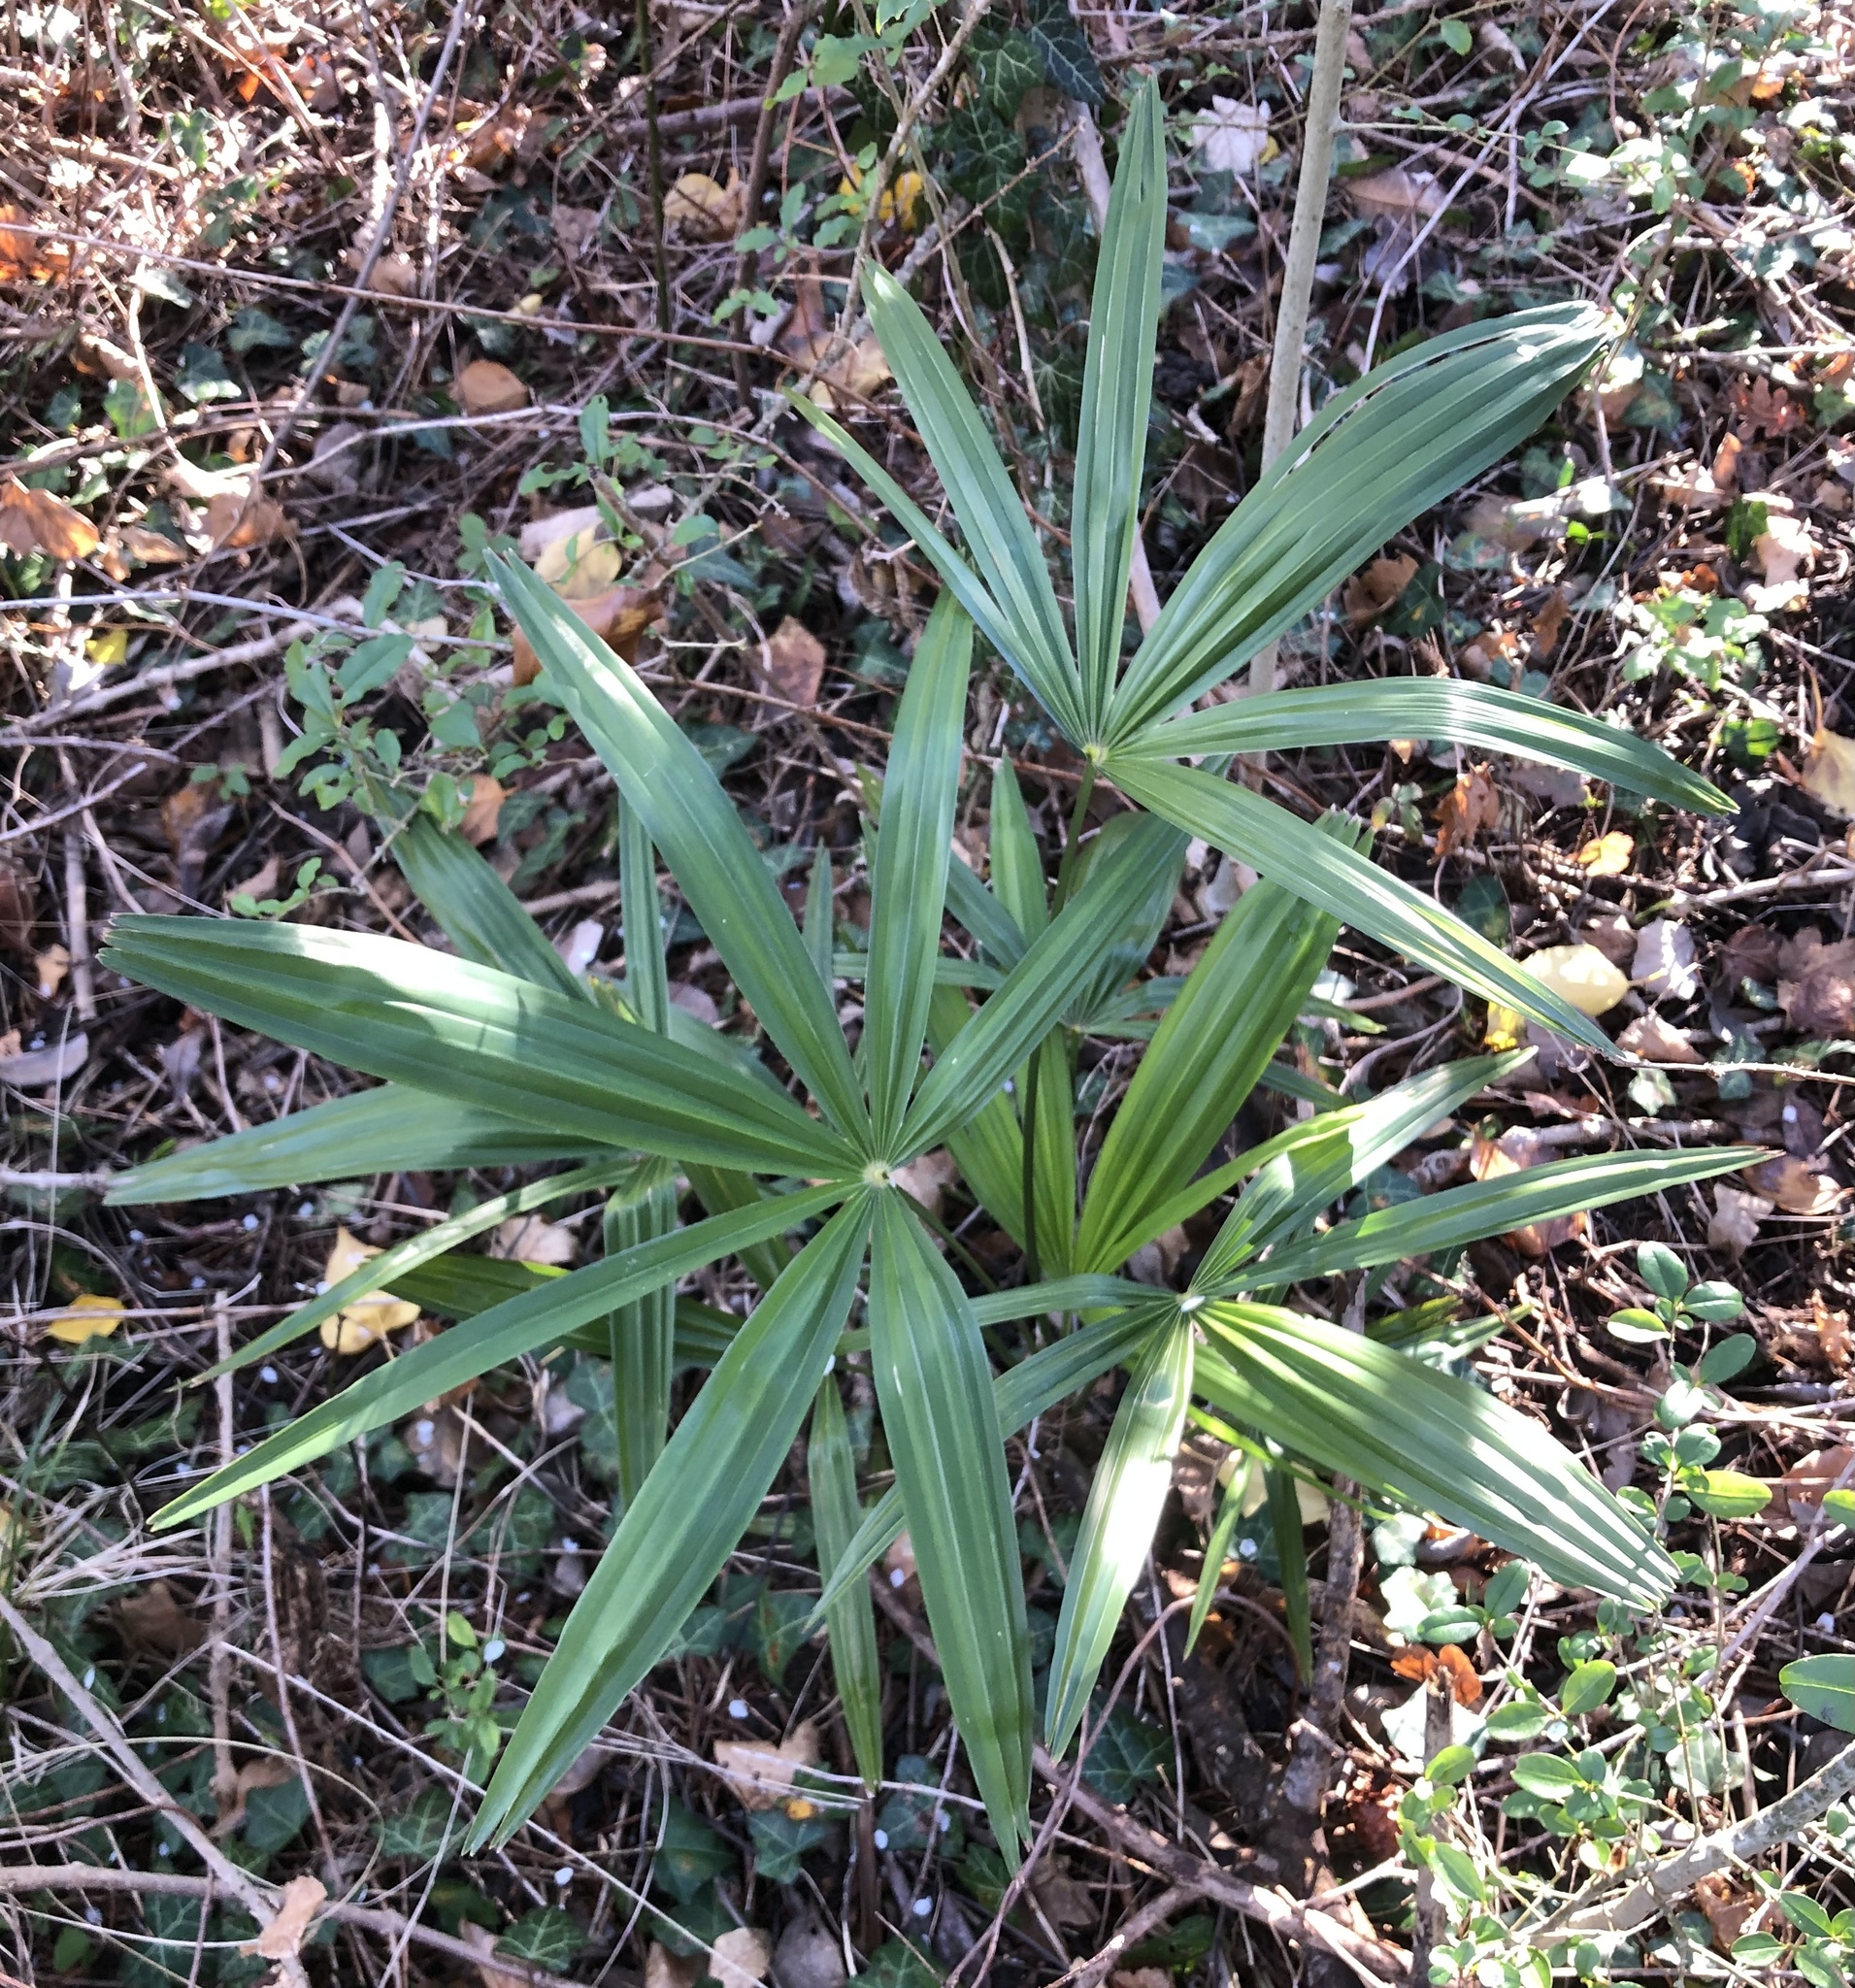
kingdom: Plantae
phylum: Tracheophyta
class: Liliopsida
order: Arecales
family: Arecaceae
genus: Trachycarpus
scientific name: Trachycarpus fortunei
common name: Chusan palm
